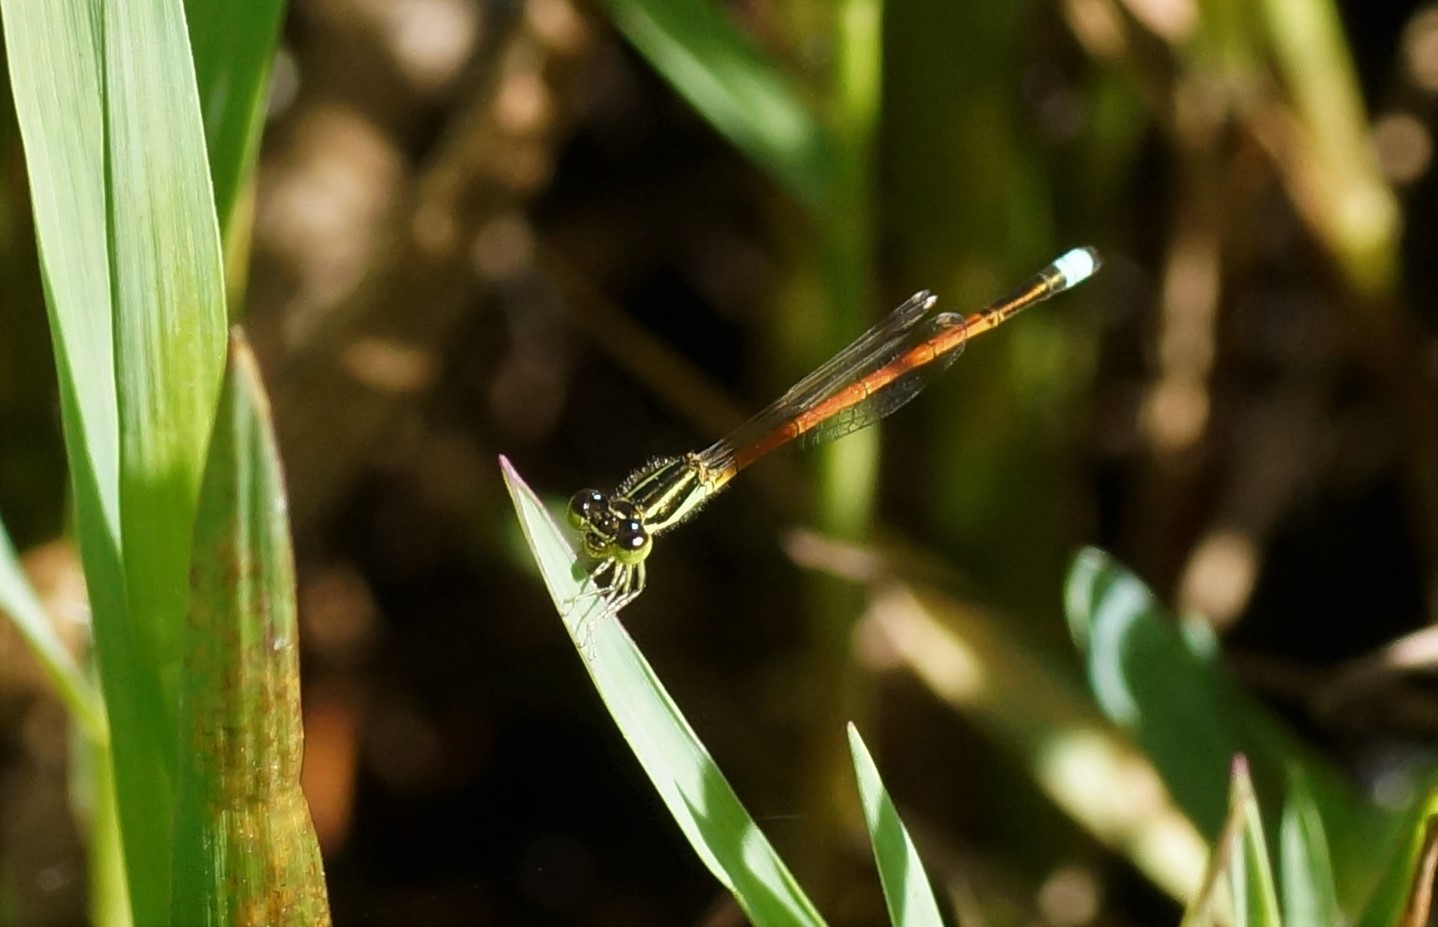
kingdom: Animalia
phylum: Arthropoda
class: Insecta
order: Odonata
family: Coenagrionidae
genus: Ischnura
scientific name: Ischnura aurora
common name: Gossamer damselfly
